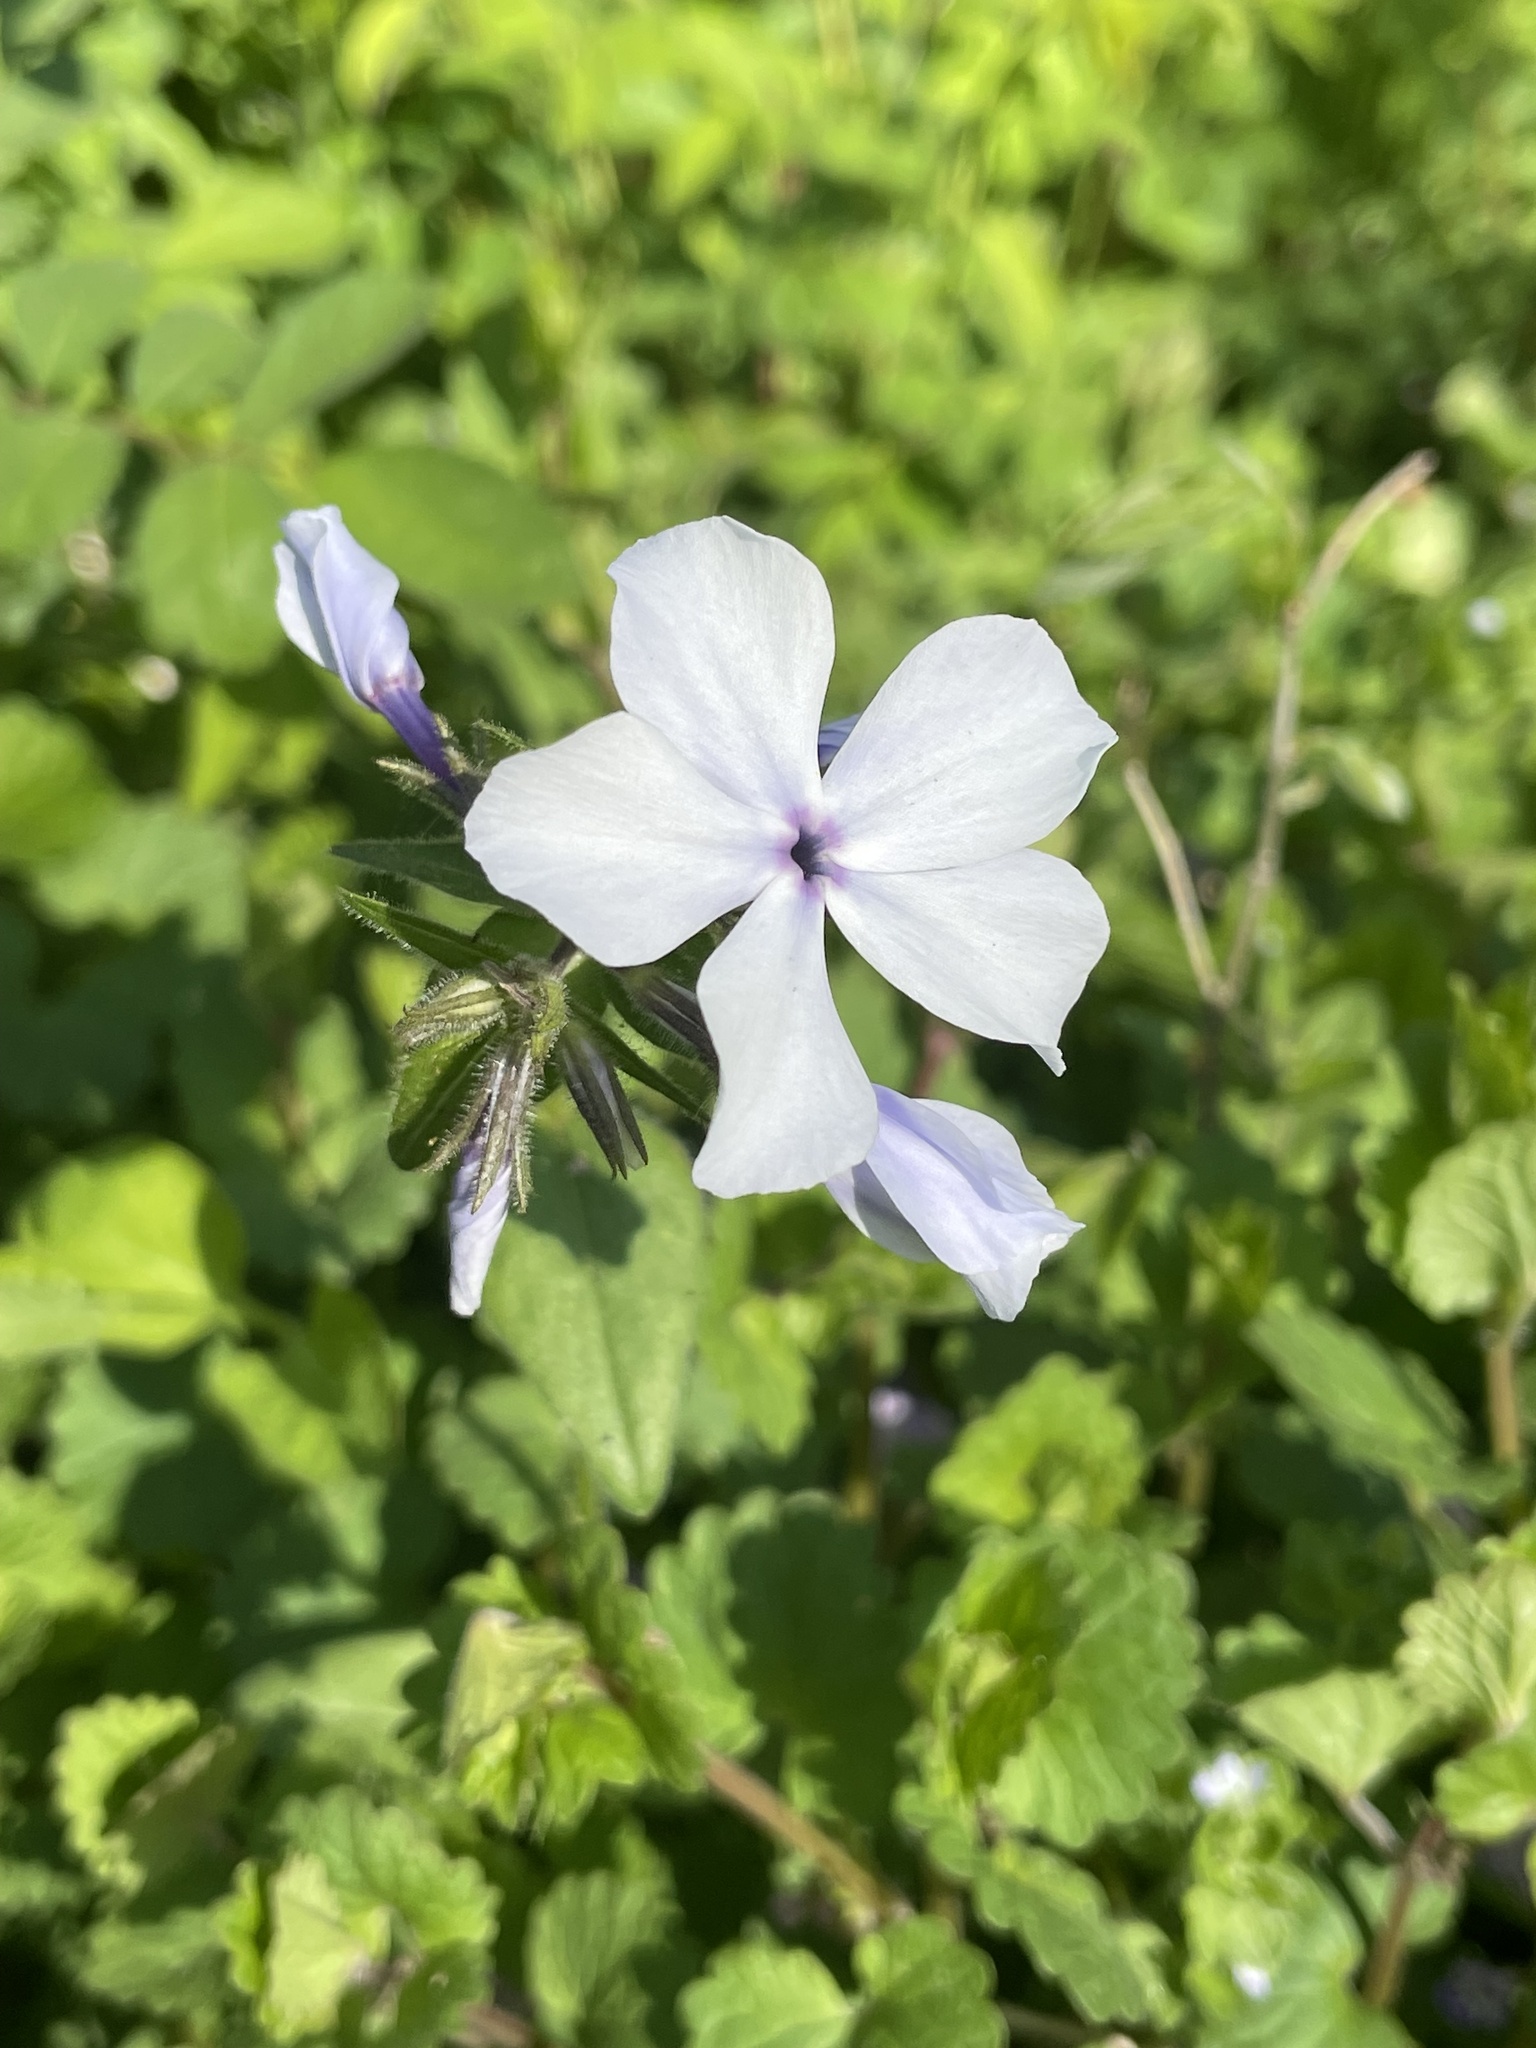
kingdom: Plantae
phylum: Tracheophyta
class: Magnoliopsida
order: Ericales
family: Polemoniaceae
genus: Phlox
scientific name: Phlox divaricata
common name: Blue phlox
